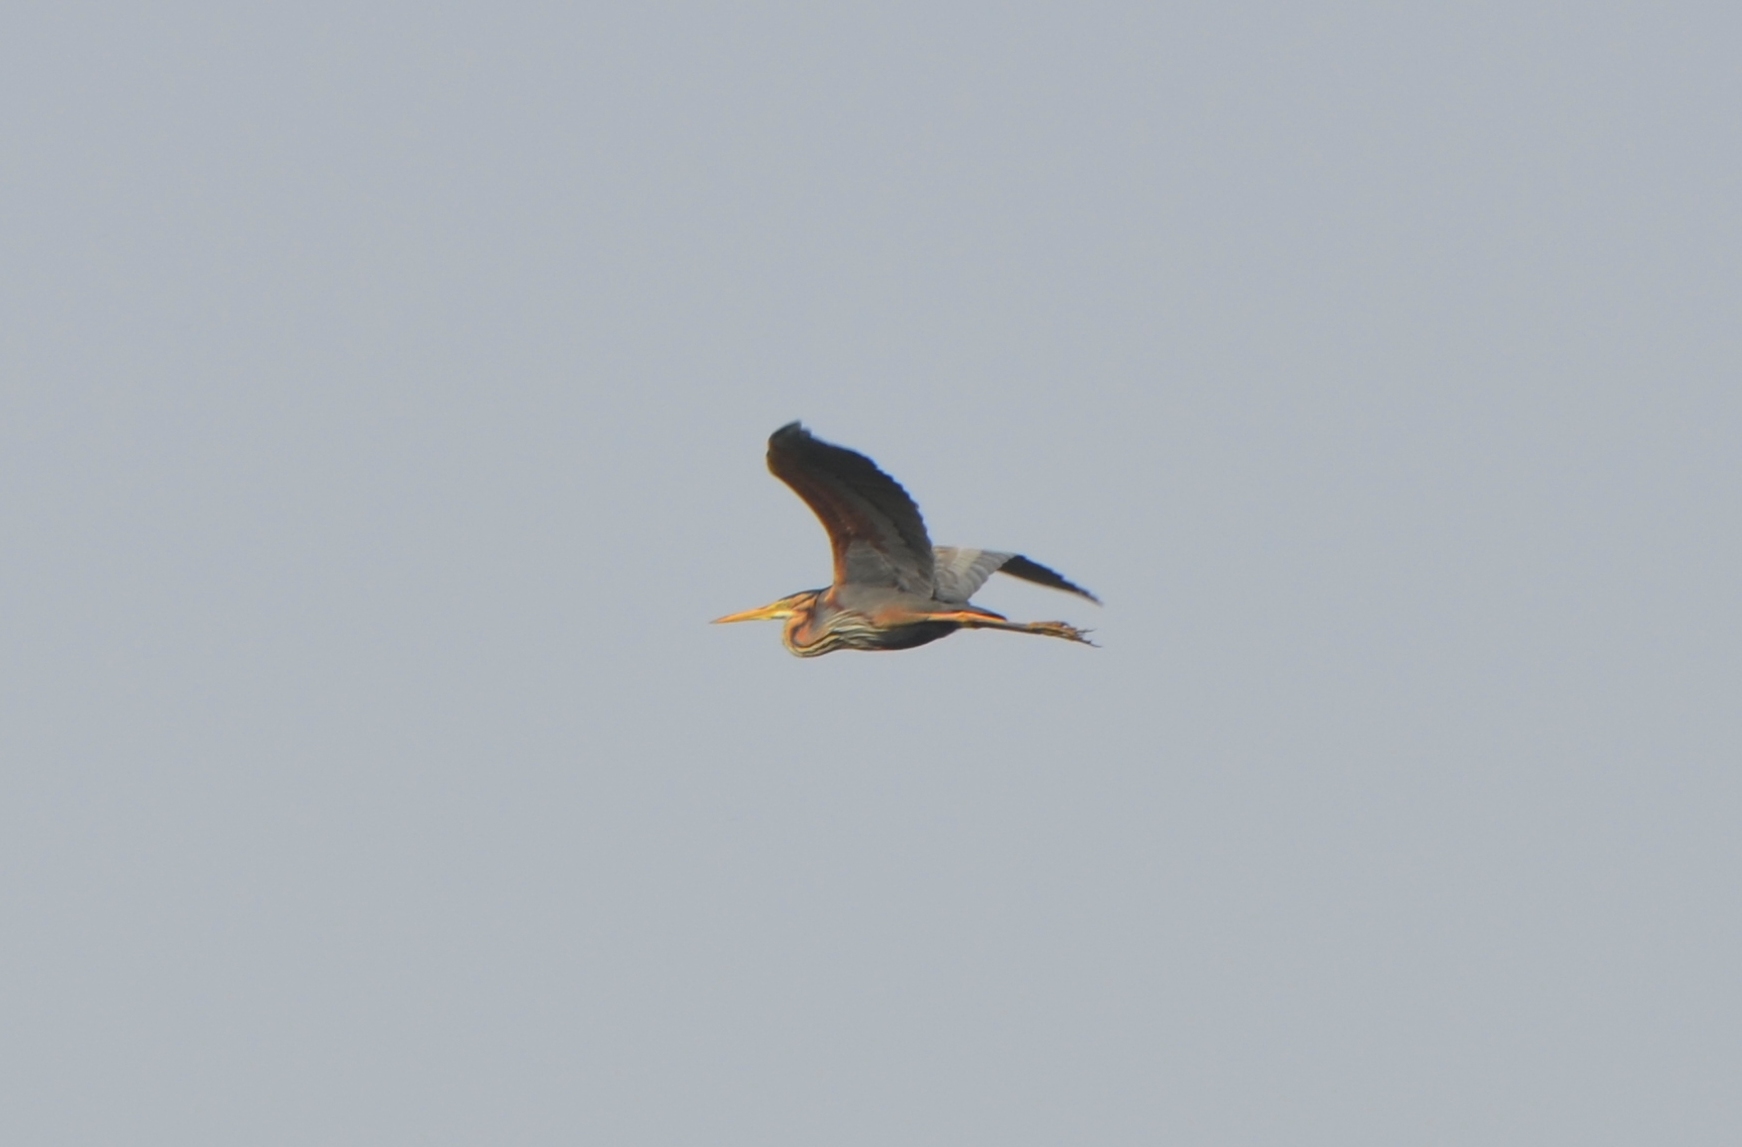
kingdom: Animalia
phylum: Chordata
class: Aves
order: Pelecaniformes
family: Ardeidae
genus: Ardea
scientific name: Ardea purpurea
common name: Purple heron
